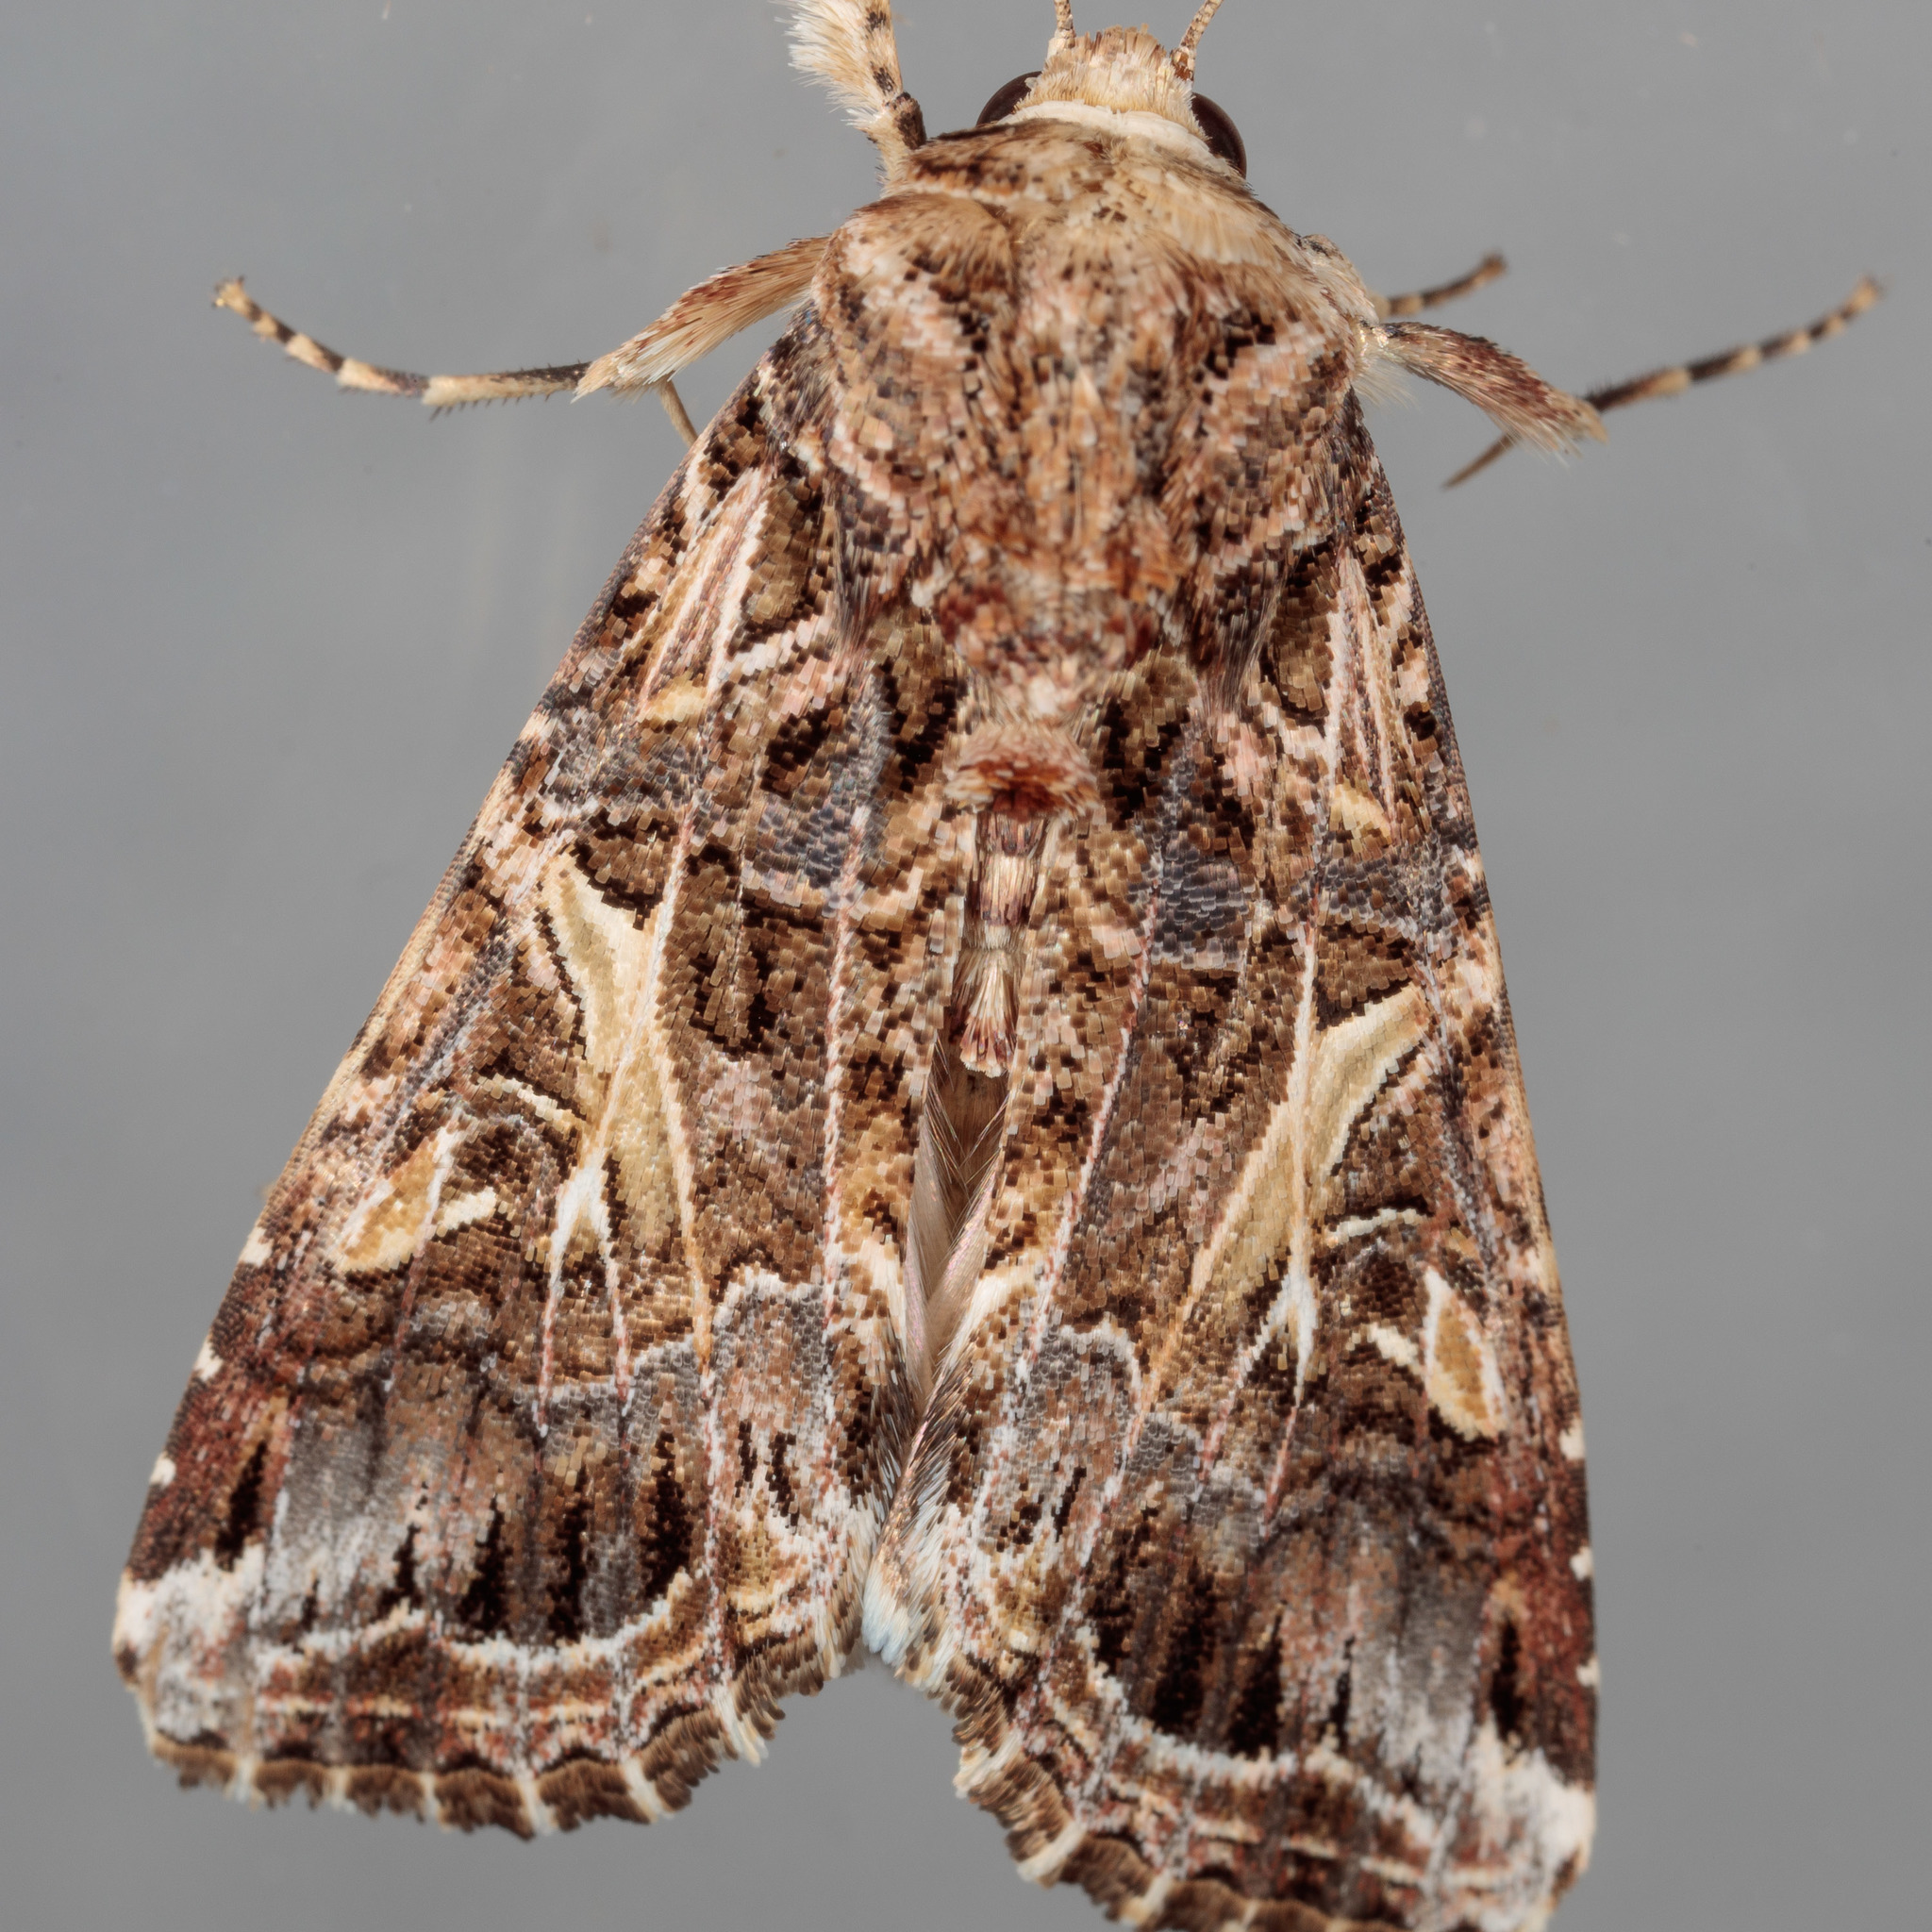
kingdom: Animalia
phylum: Arthropoda
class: Insecta
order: Lepidoptera
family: Noctuidae
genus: Spodoptera
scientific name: Spodoptera ornithogalli
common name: Yellow-striped armyworm
